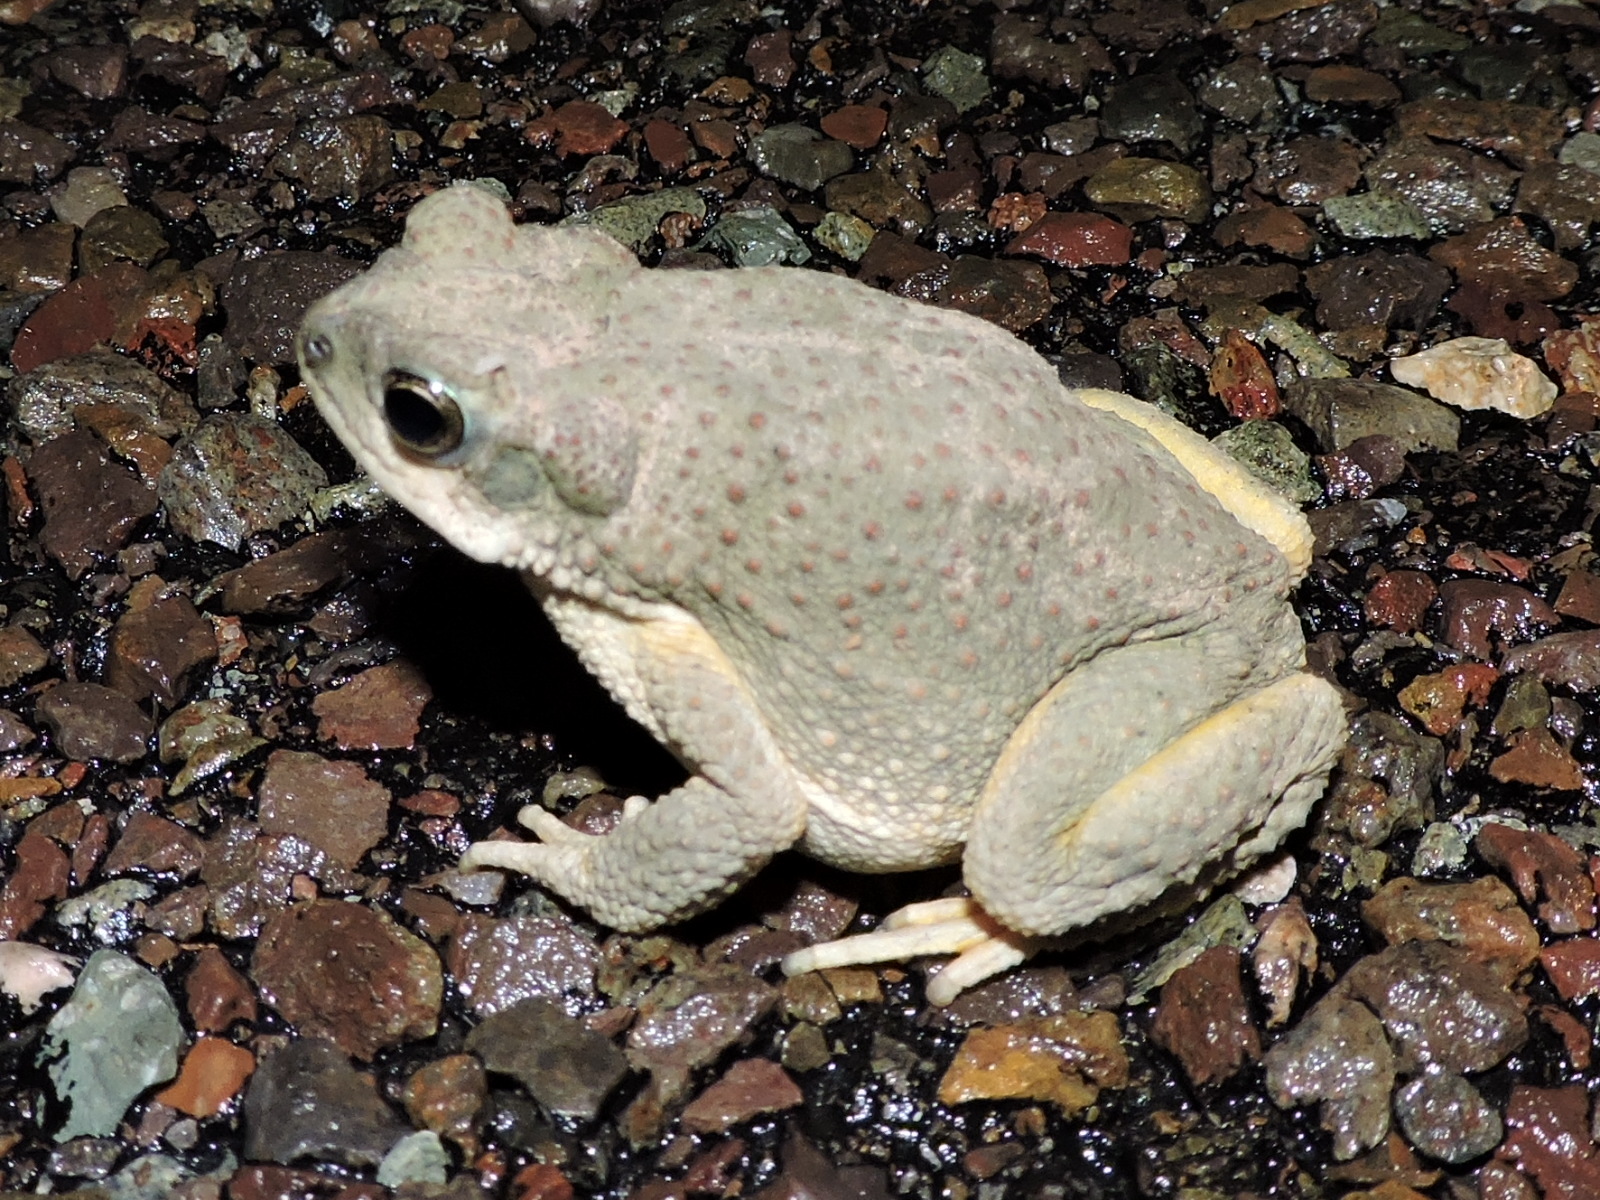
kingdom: Animalia
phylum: Chordata
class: Amphibia
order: Anura
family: Bufonidae
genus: Anaxyrus
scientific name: Anaxyrus punctatus
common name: Red-spotted toad
